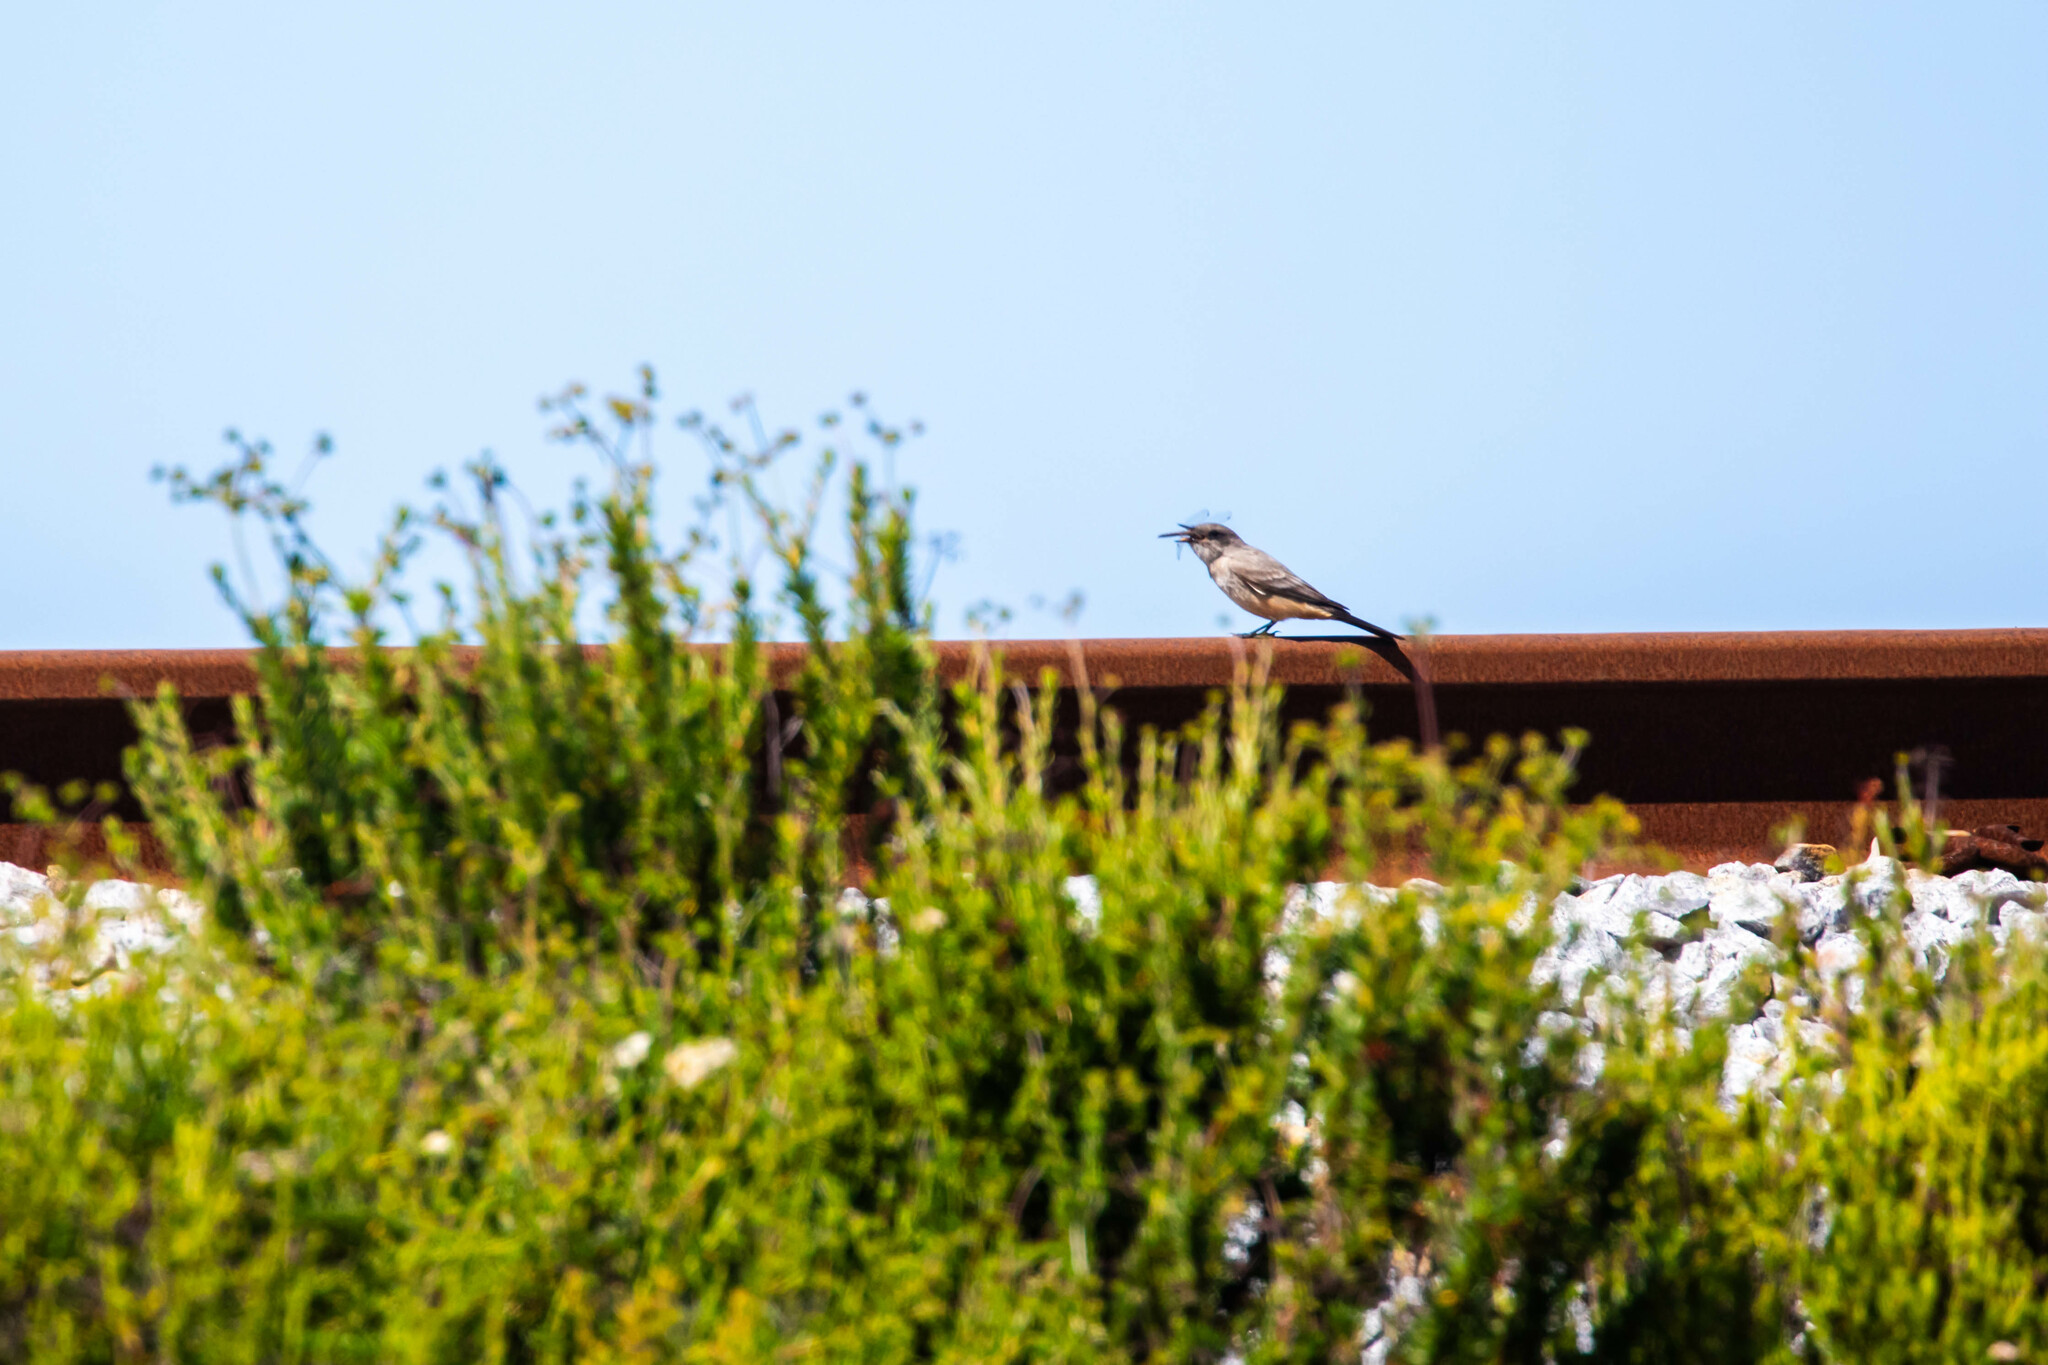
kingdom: Animalia
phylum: Chordata
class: Aves
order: Passeriformes
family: Tyrannidae
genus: Sayornis
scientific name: Sayornis saya
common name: Say's phoebe
